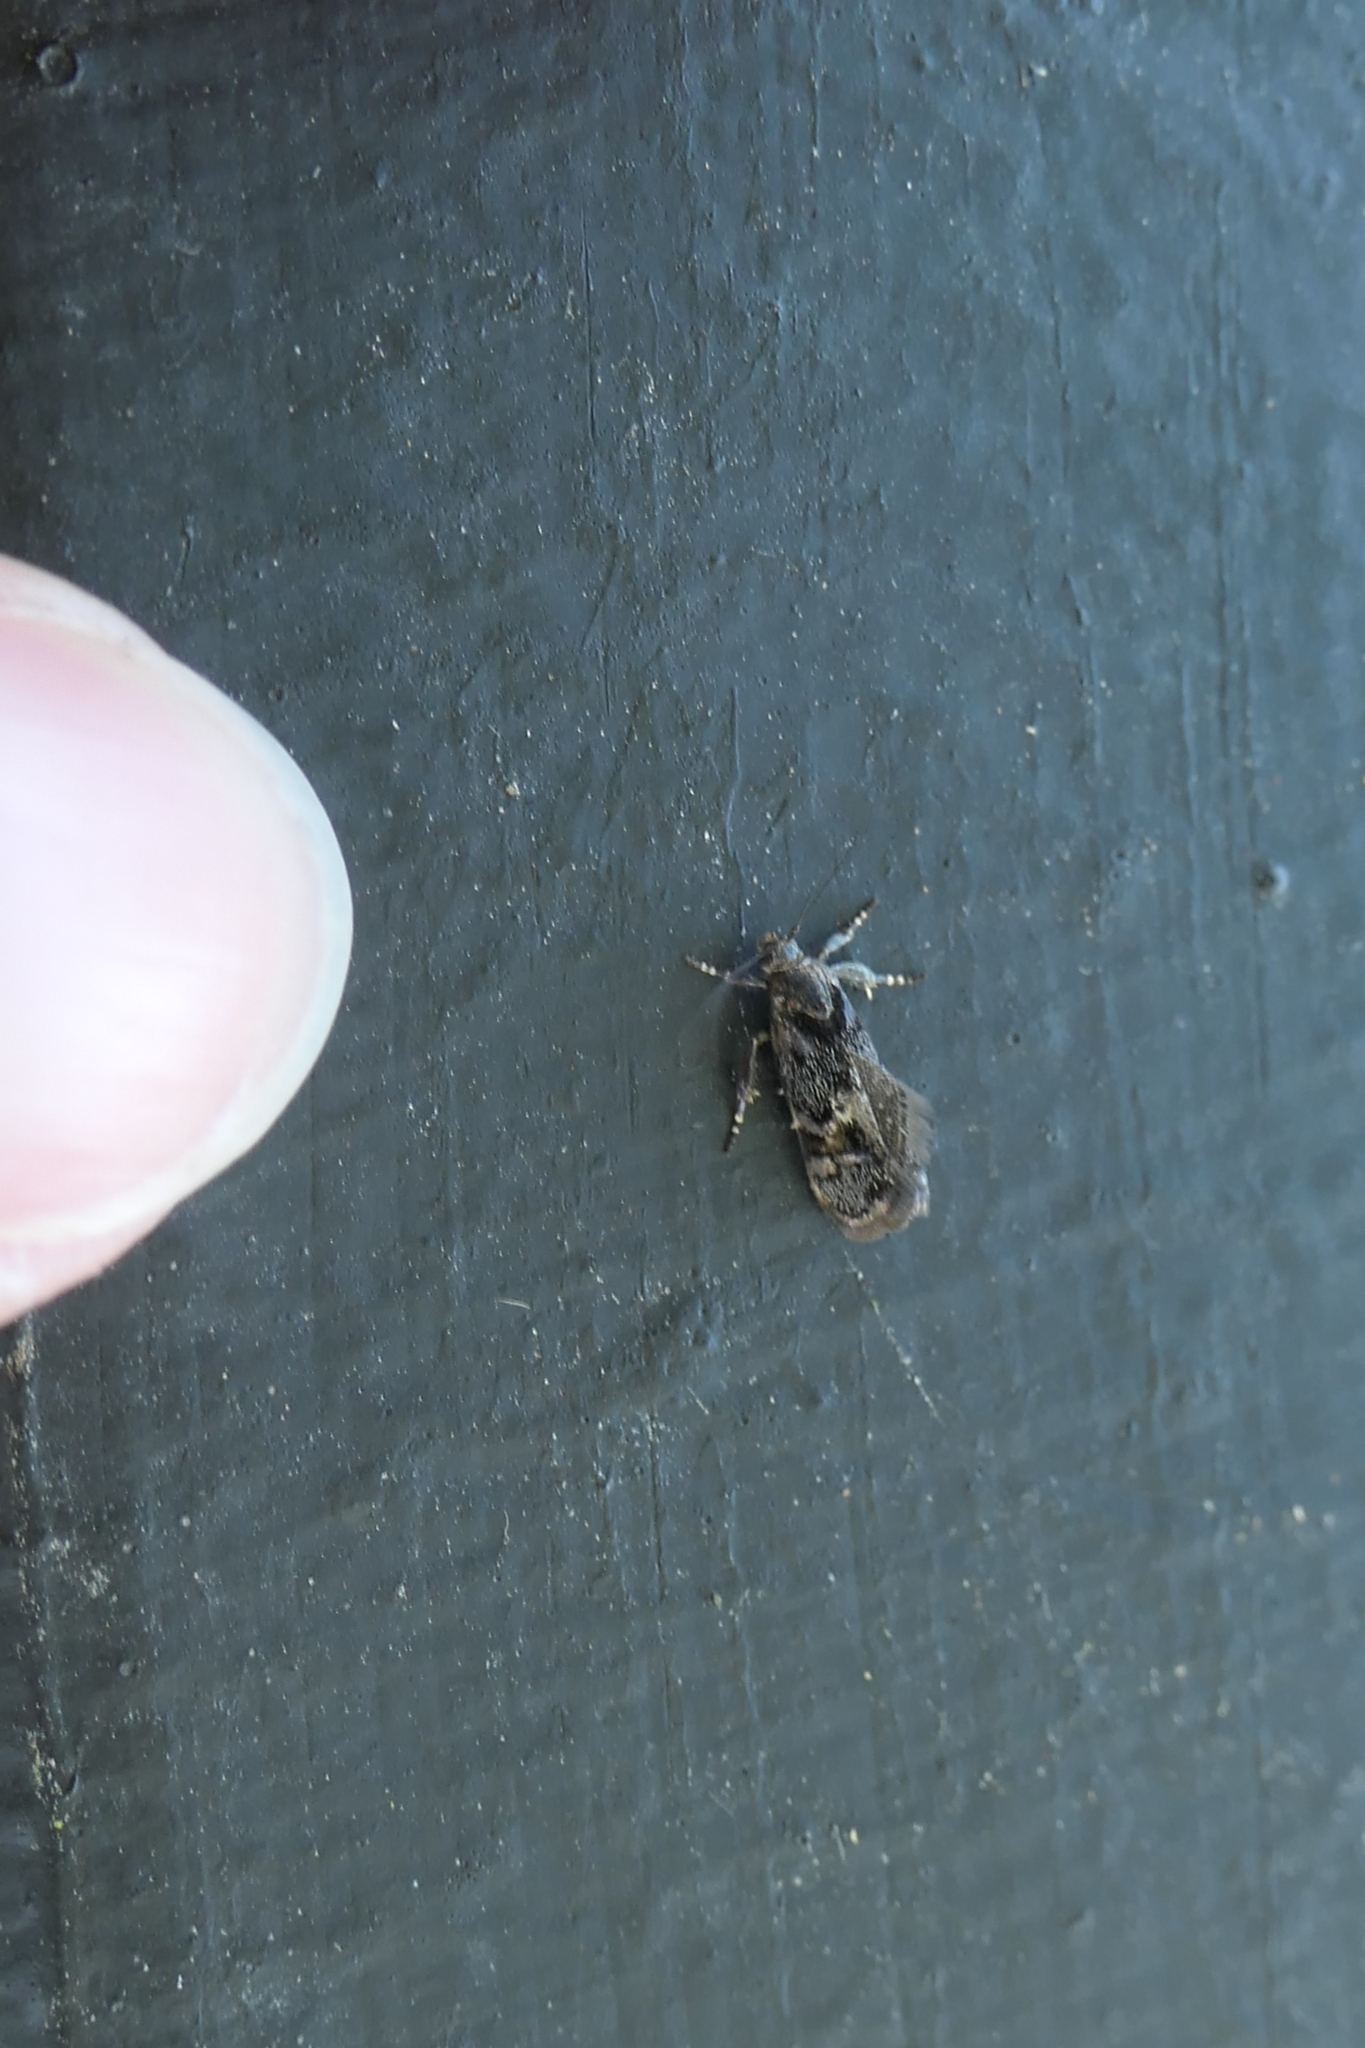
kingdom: Animalia
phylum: Arthropoda
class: Insecta
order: Lepidoptera
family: Oecophoridae
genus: Hierodoris
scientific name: Hierodoris torrida
